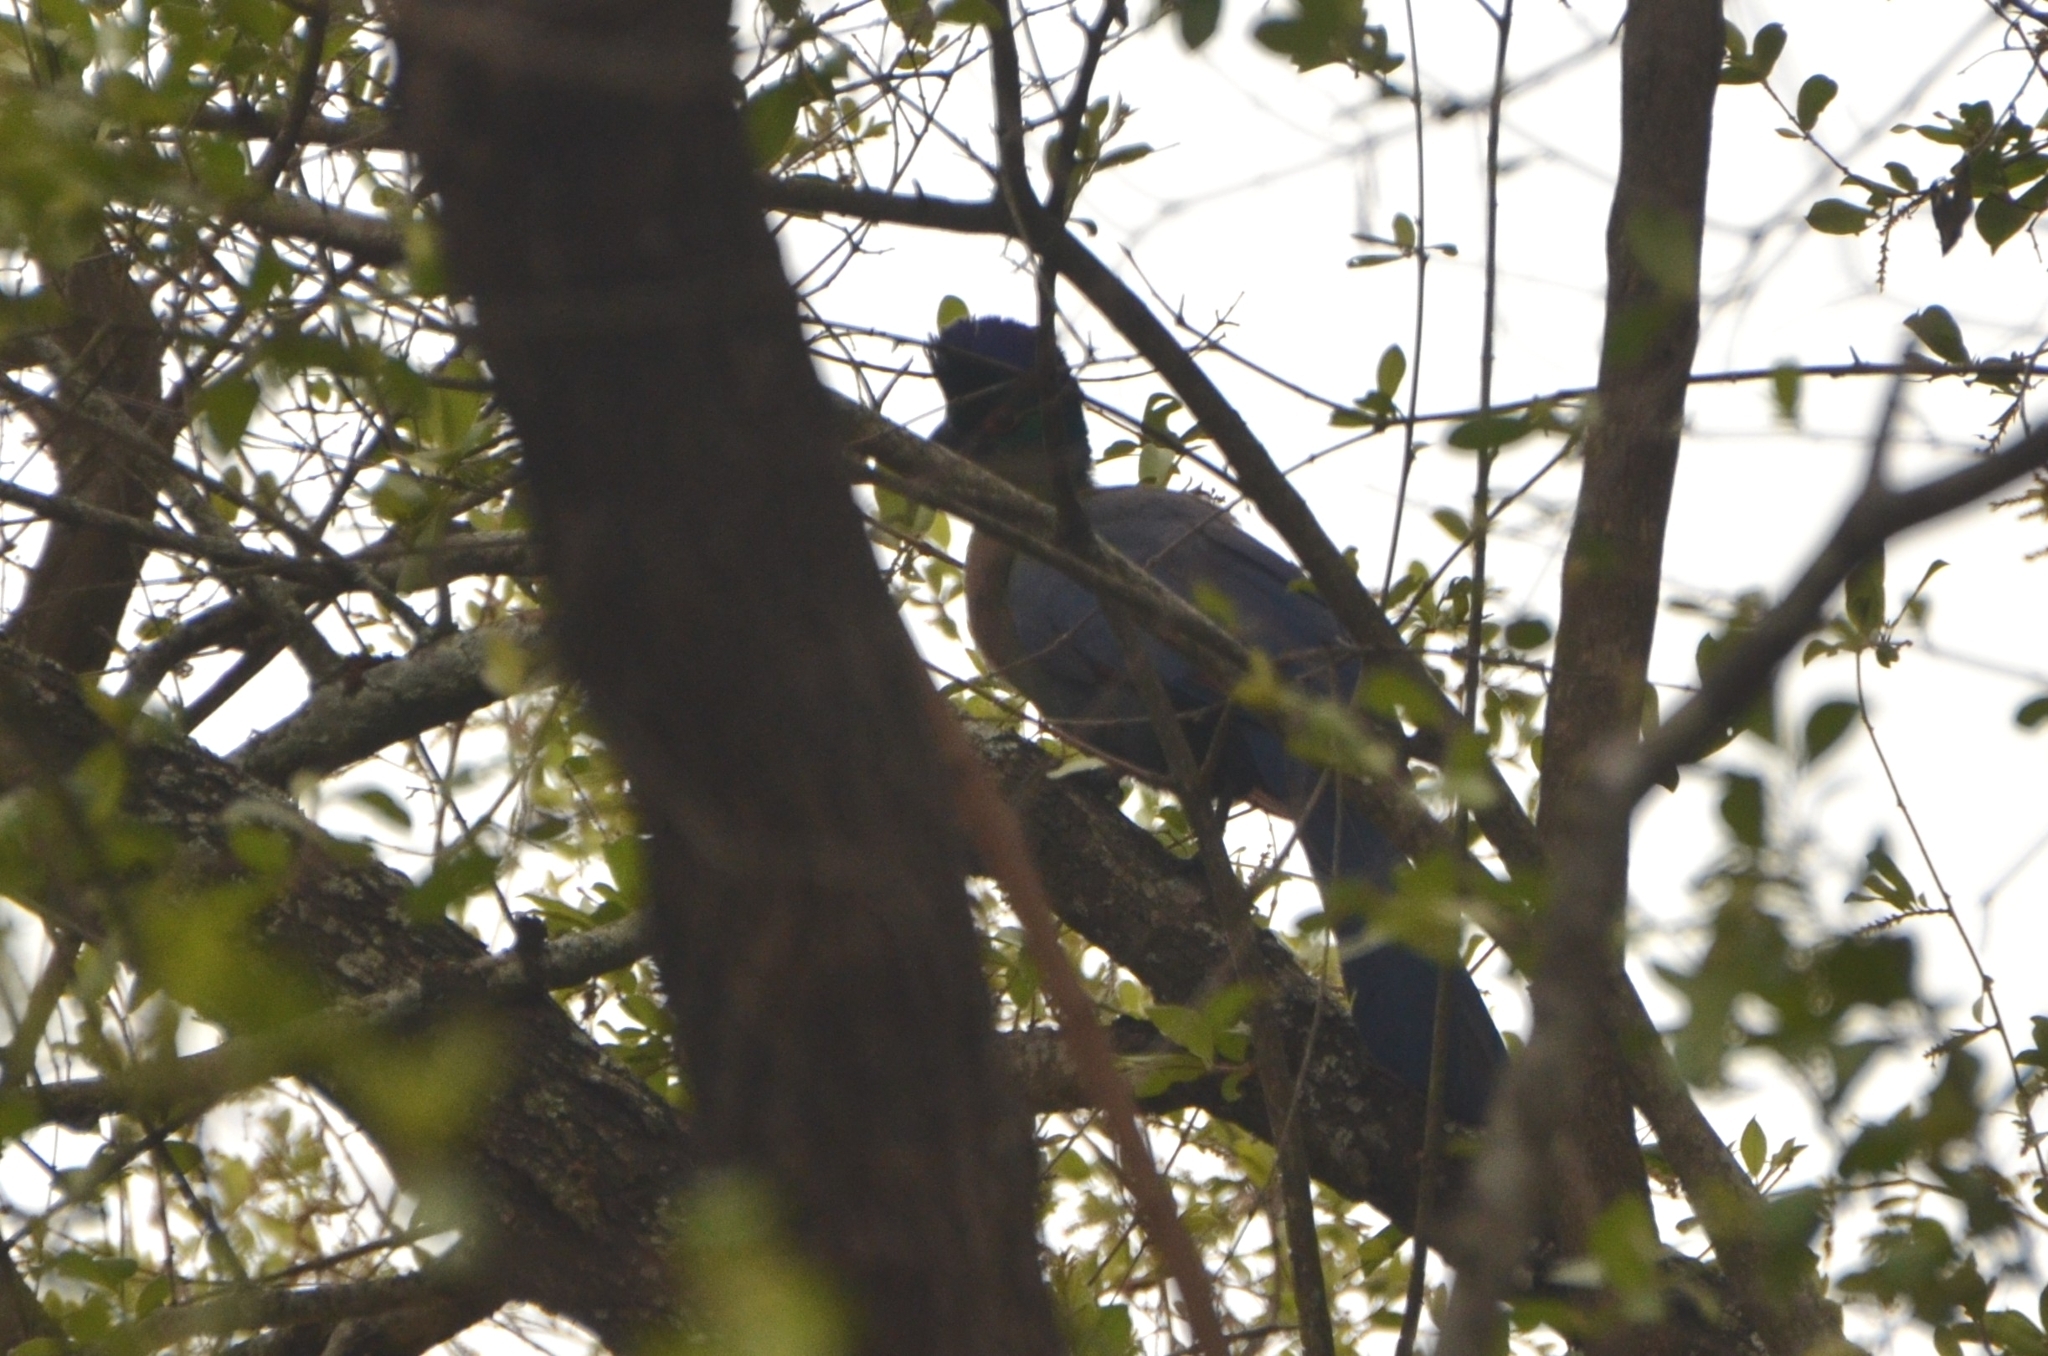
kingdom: Animalia
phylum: Chordata
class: Aves
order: Musophagiformes
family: Musophagidae
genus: Tauraco
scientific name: Tauraco porphyreolophus
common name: Purple-crested turaco
